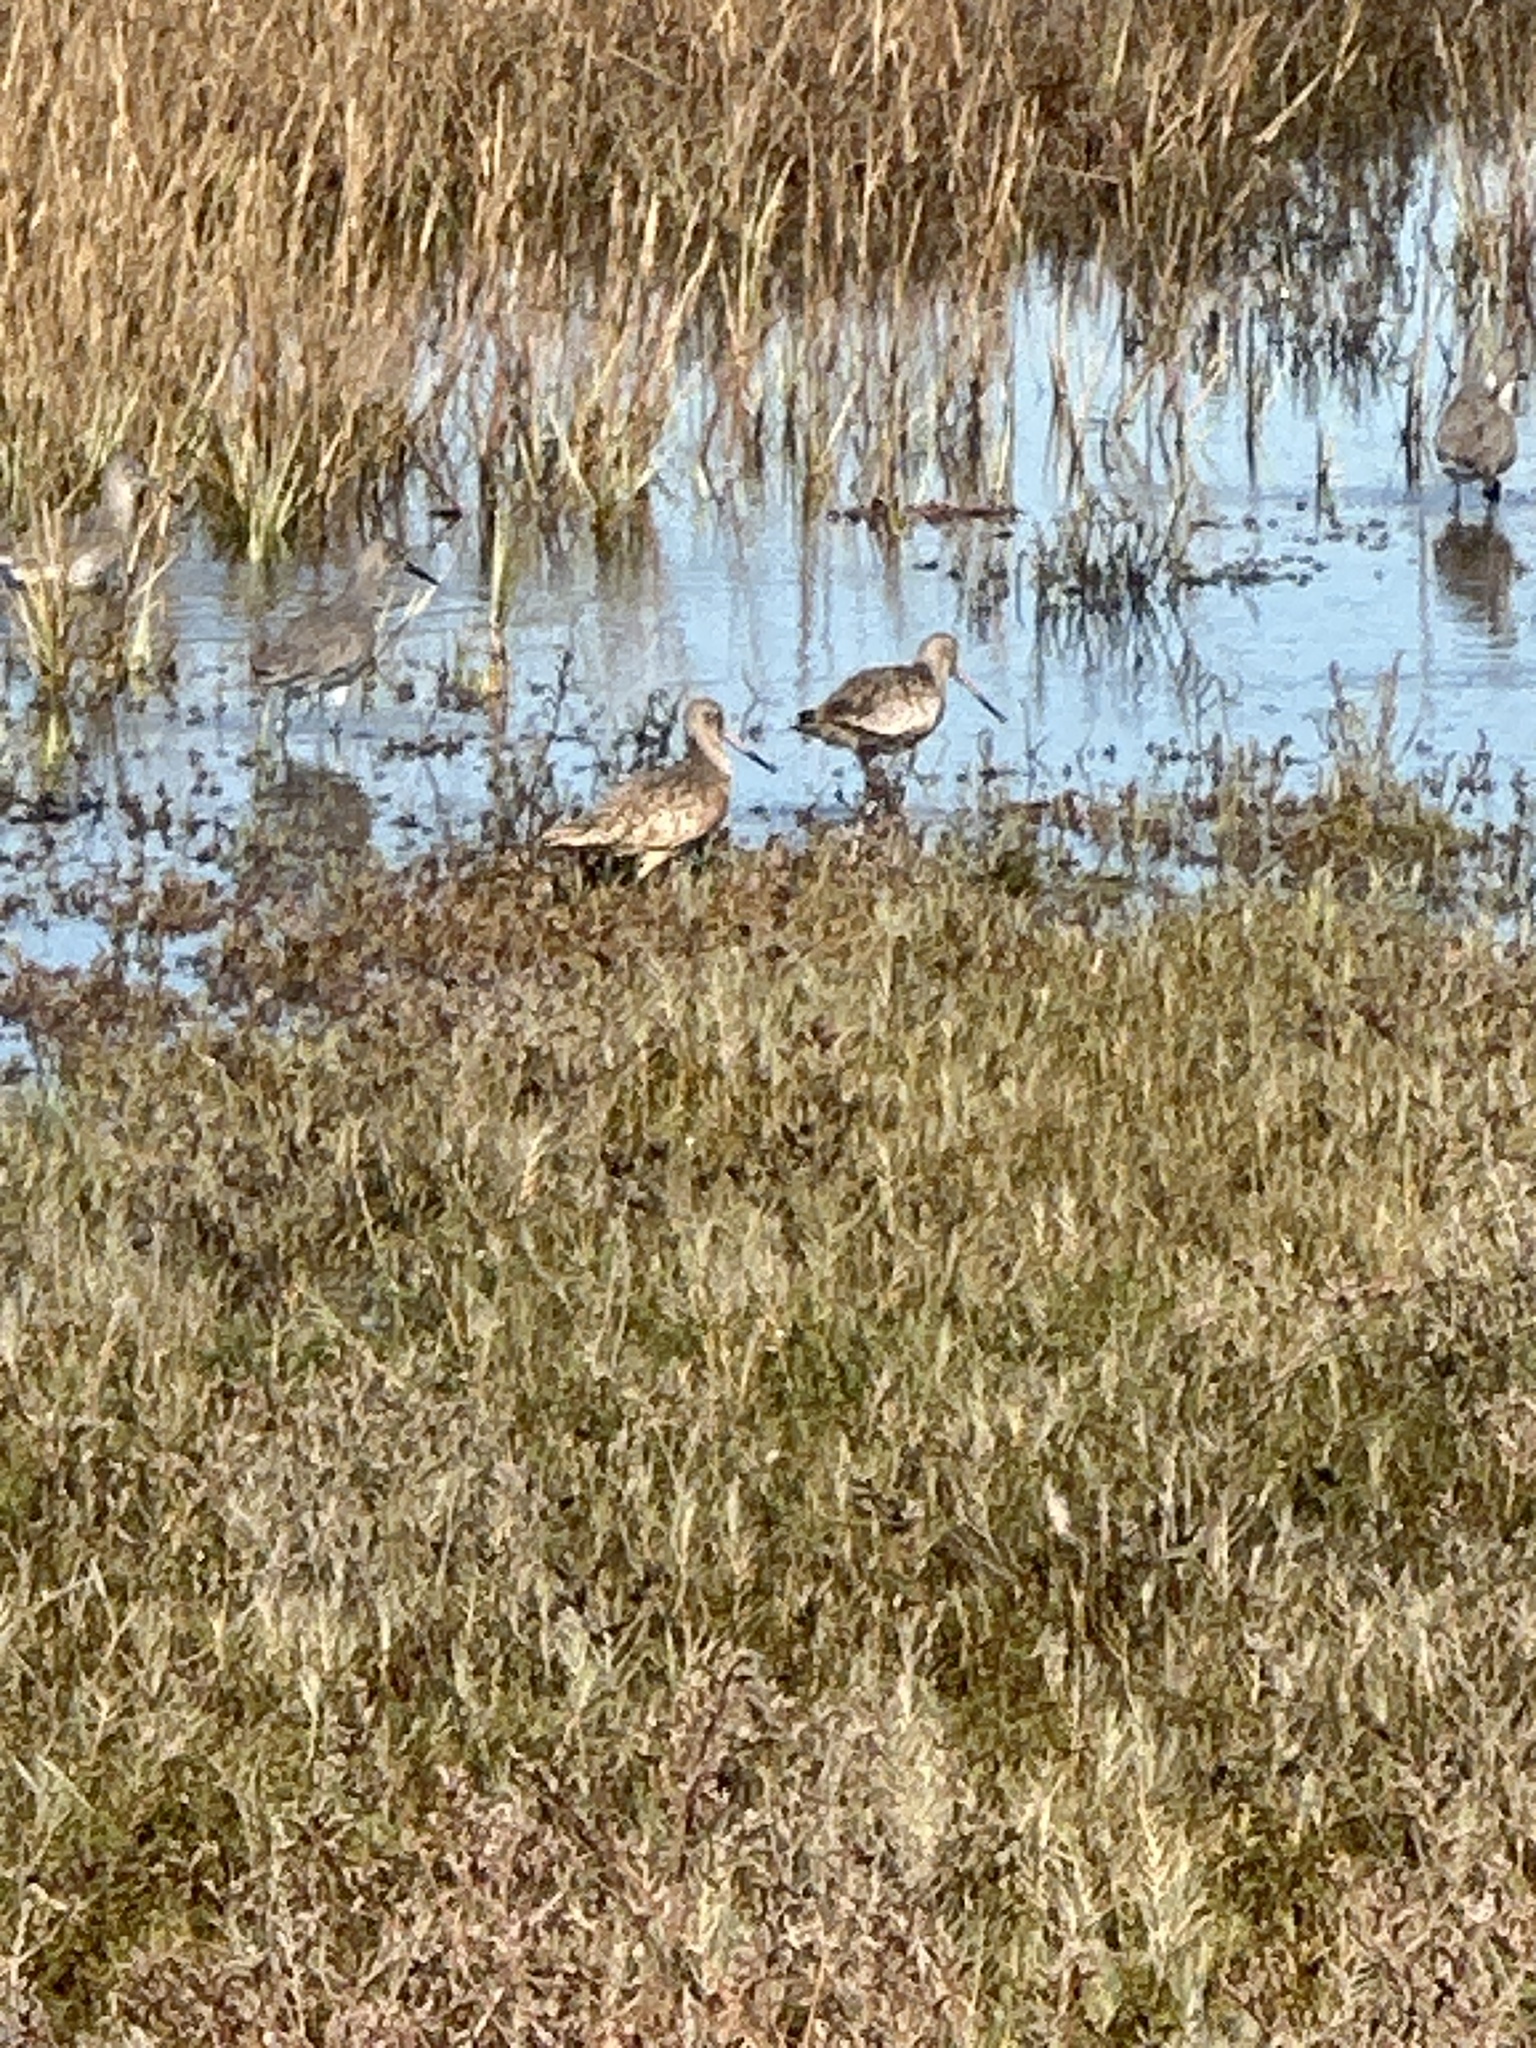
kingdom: Animalia
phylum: Chordata
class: Aves
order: Charadriiformes
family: Scolopacidae
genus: Limosa
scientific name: Limosa fedoa
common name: Marbled godwit
